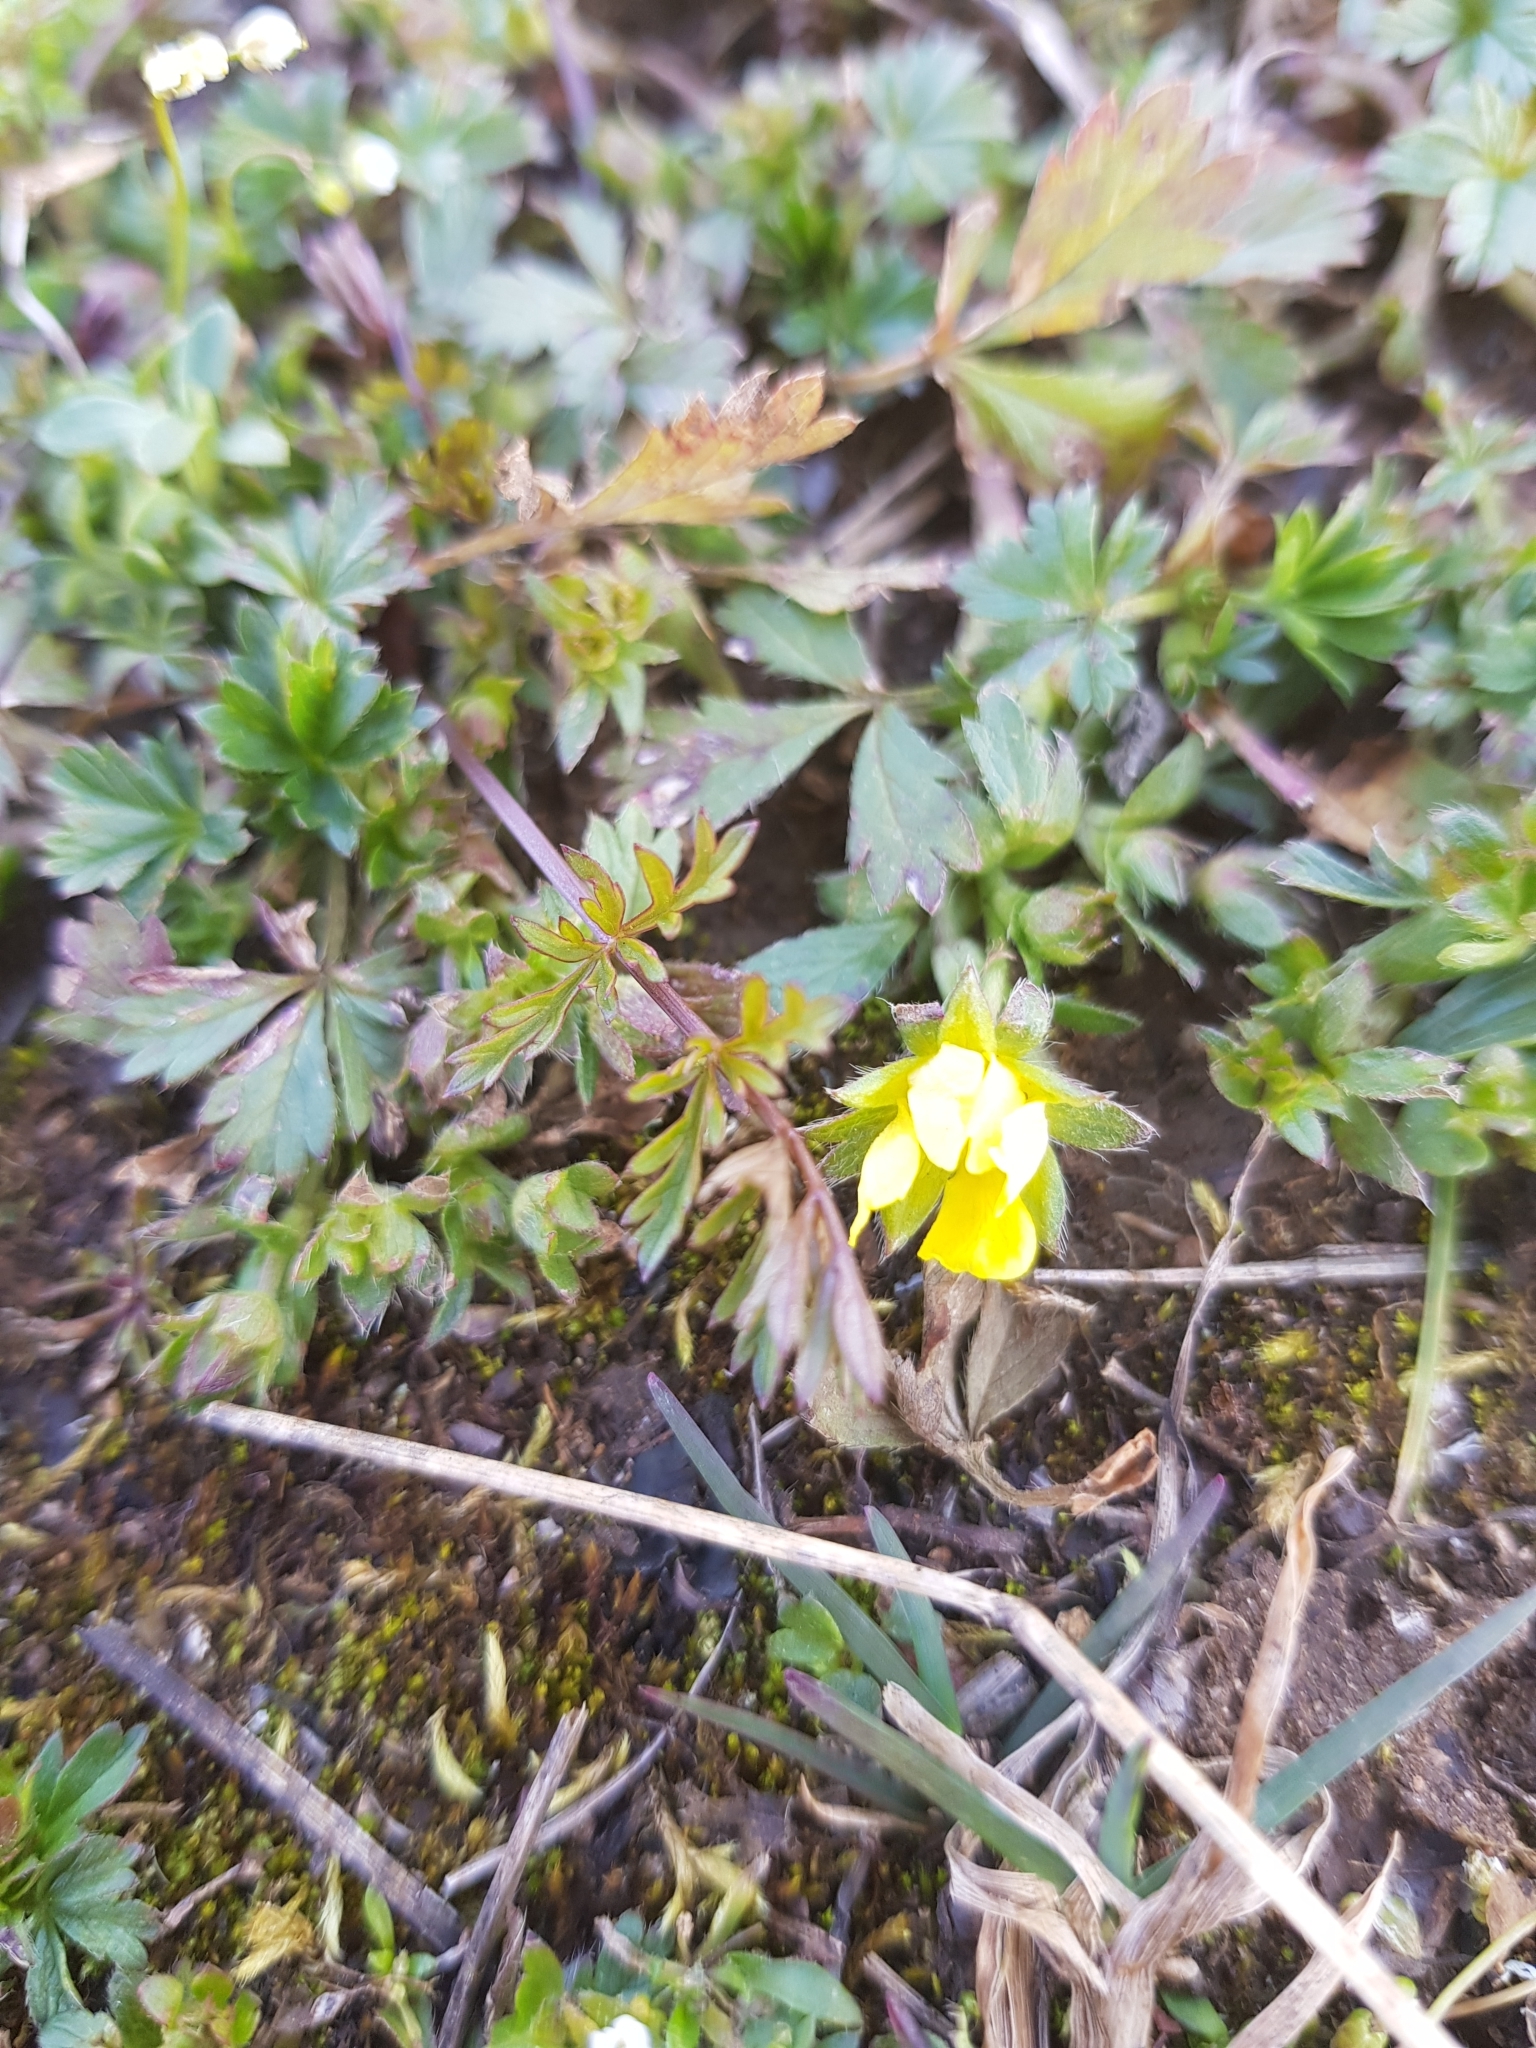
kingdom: Plantae
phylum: Tracheophyta
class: Magnoliopsida
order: Rosales
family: Rosaceae
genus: Potentilla
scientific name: Potentilla verna
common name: Spring cinquefoil
